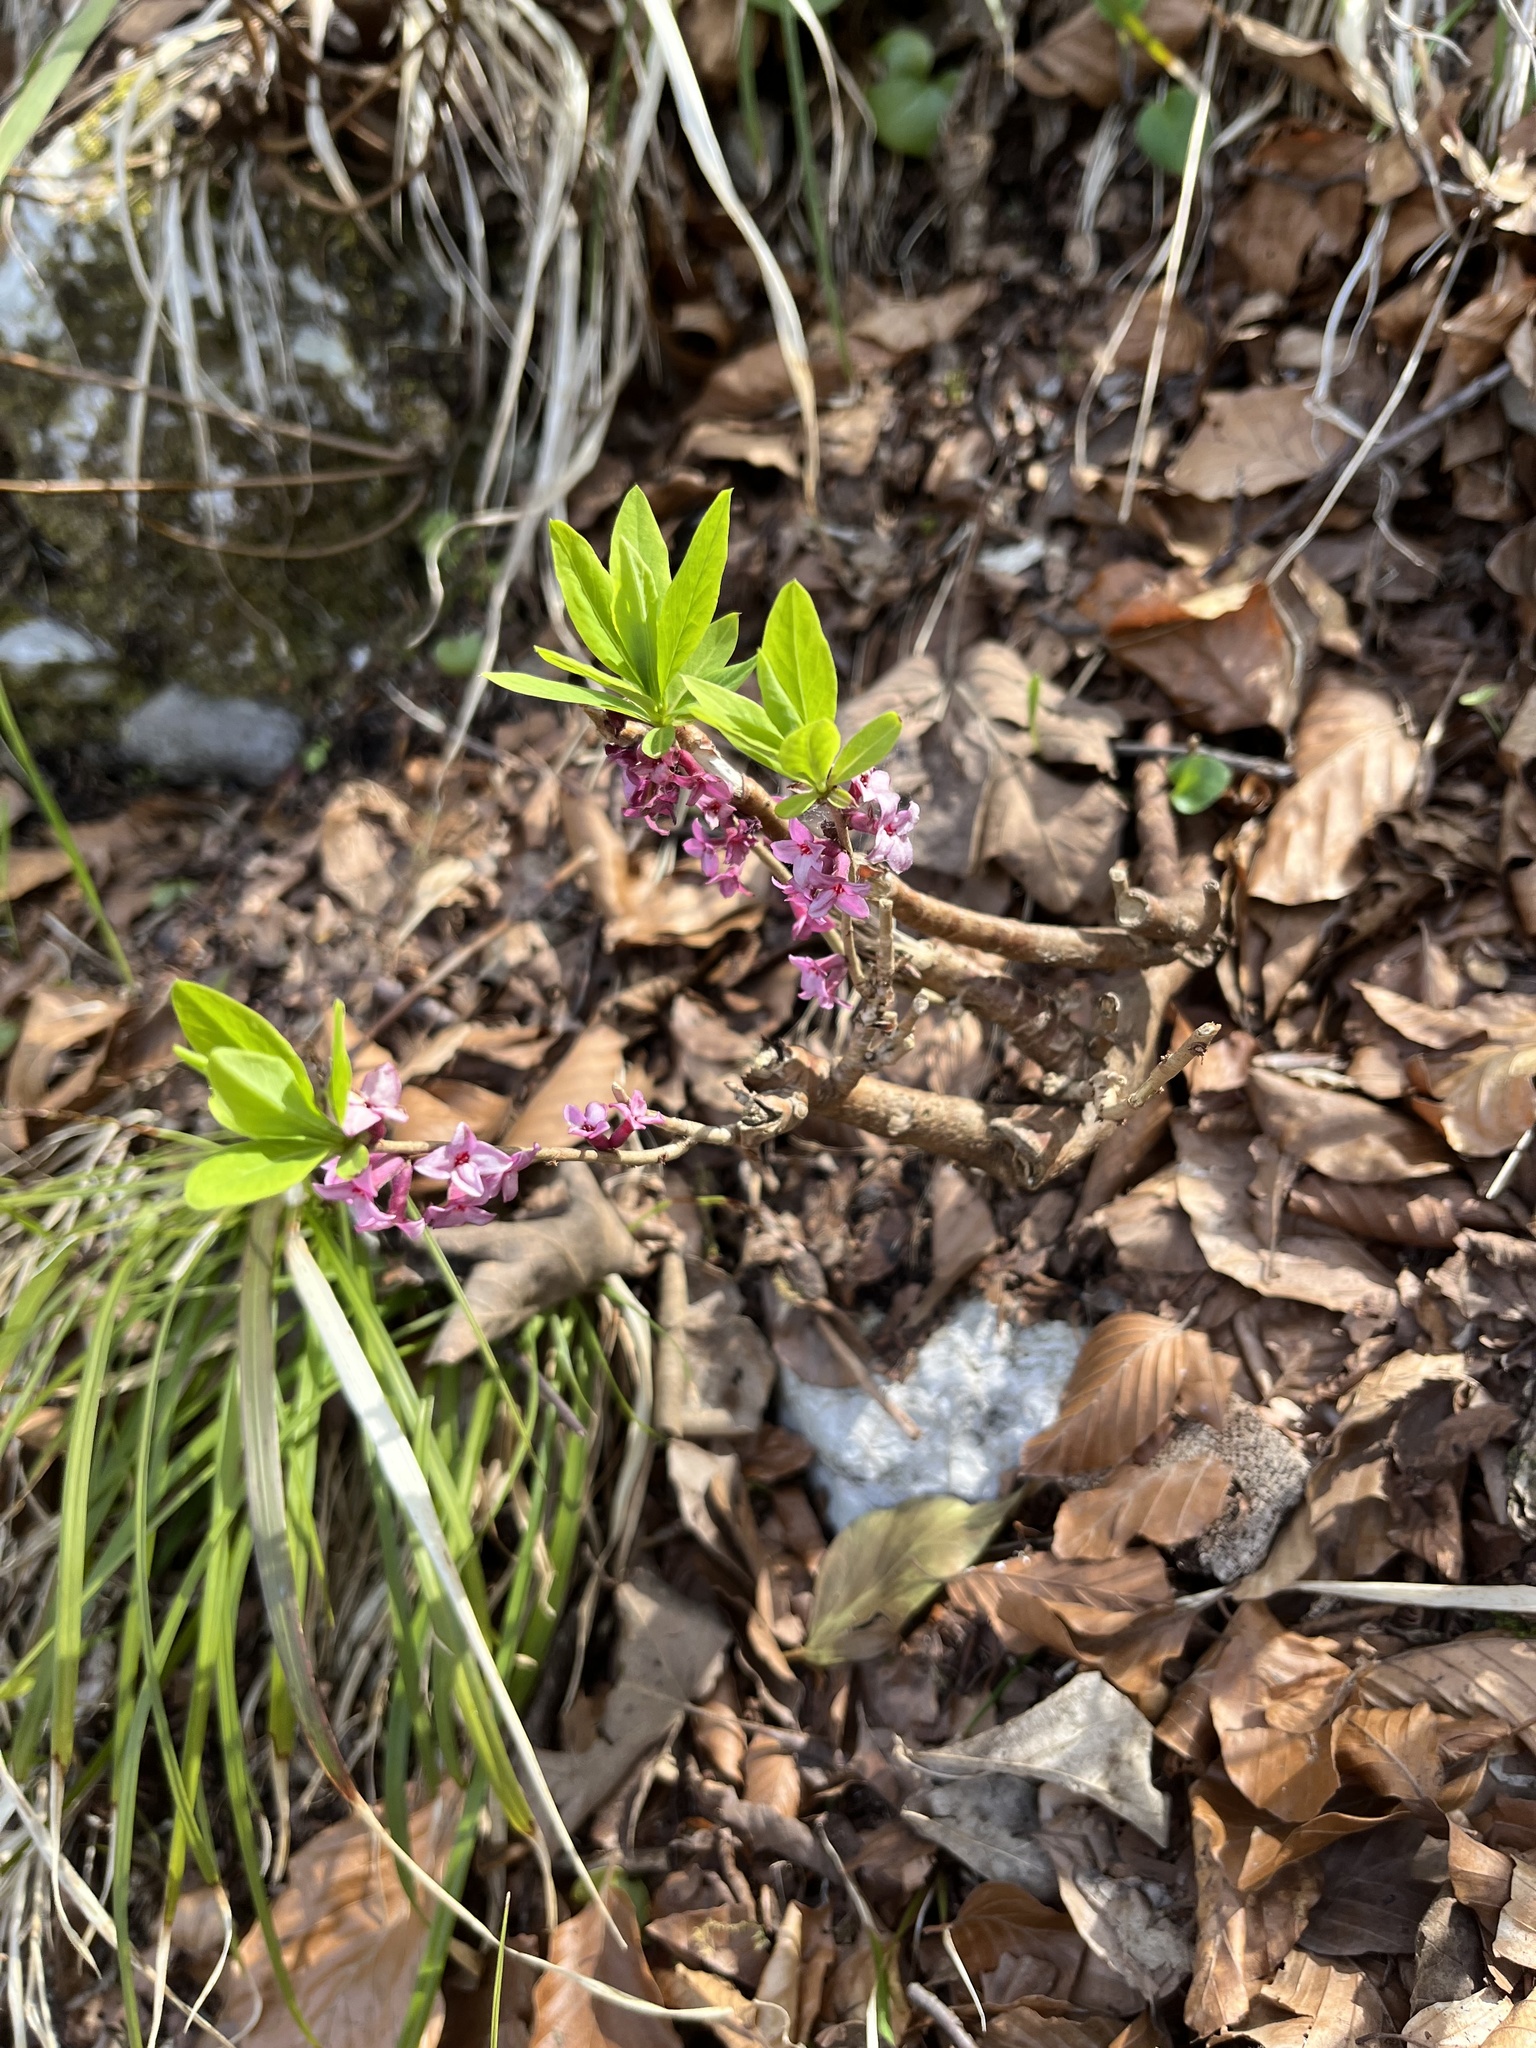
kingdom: Plantae
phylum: Tracheophyta
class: Magnoliopsida
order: Malvales
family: Thymelaeaceae
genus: Daphne
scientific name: Daphne mezereum
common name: Mezereon
